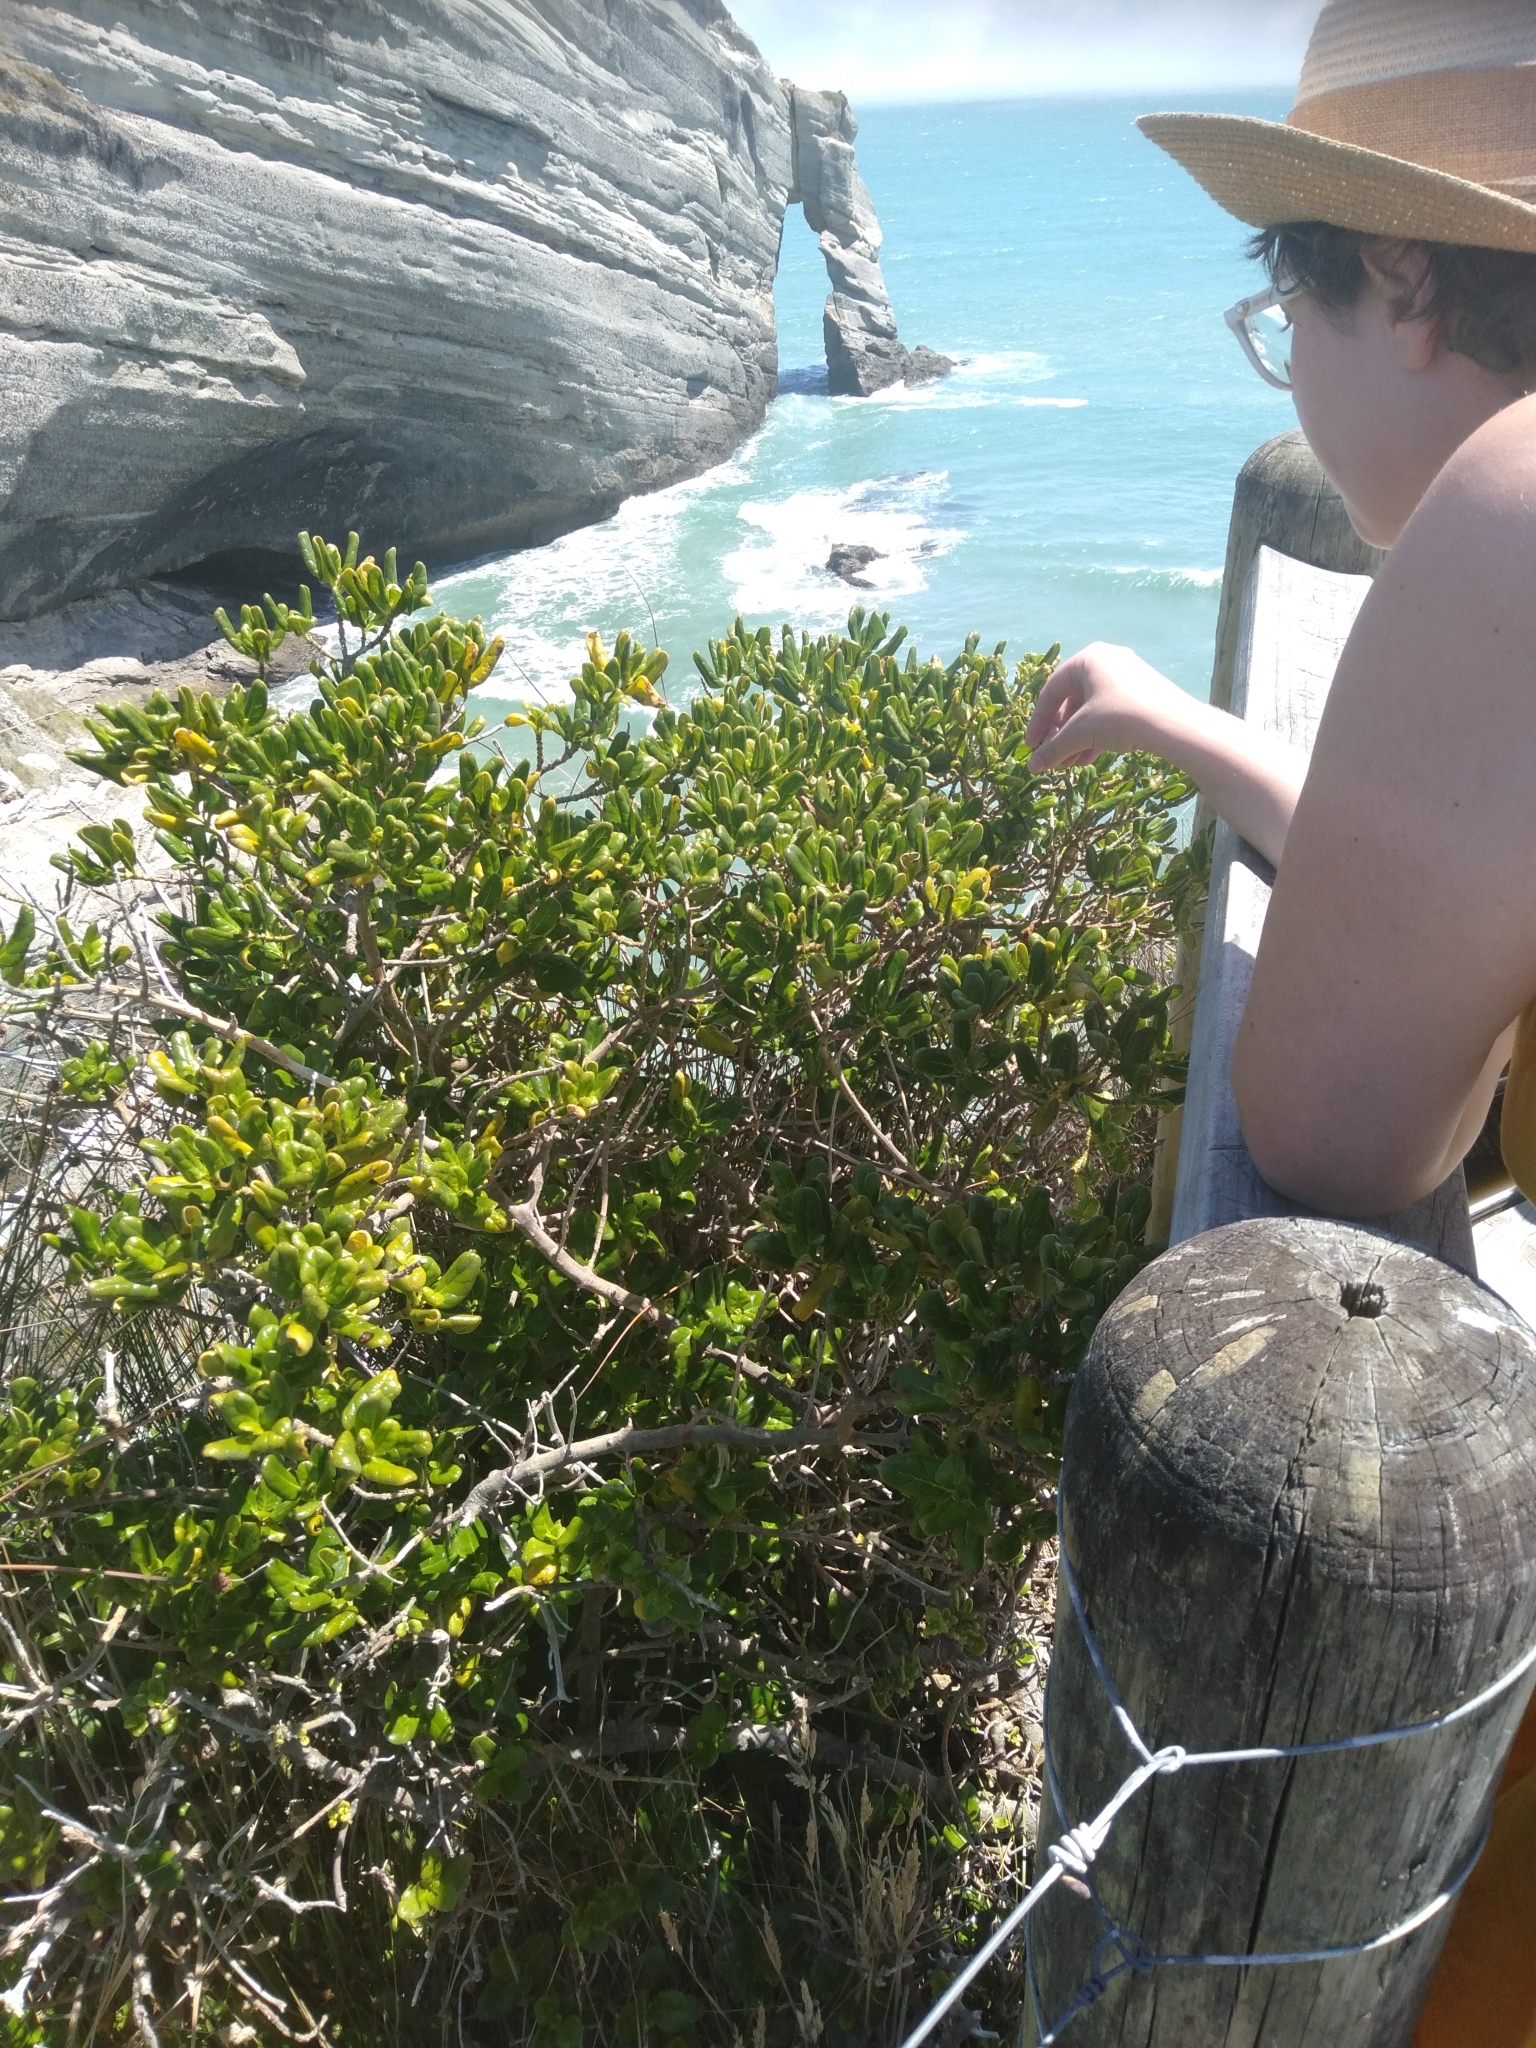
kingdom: Plantae
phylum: Tracheophyta
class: Magnoliopsida
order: Gentianales
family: Rubiaceae
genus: Coprosma
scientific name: Coprosma repens
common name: Tree bedstraw
